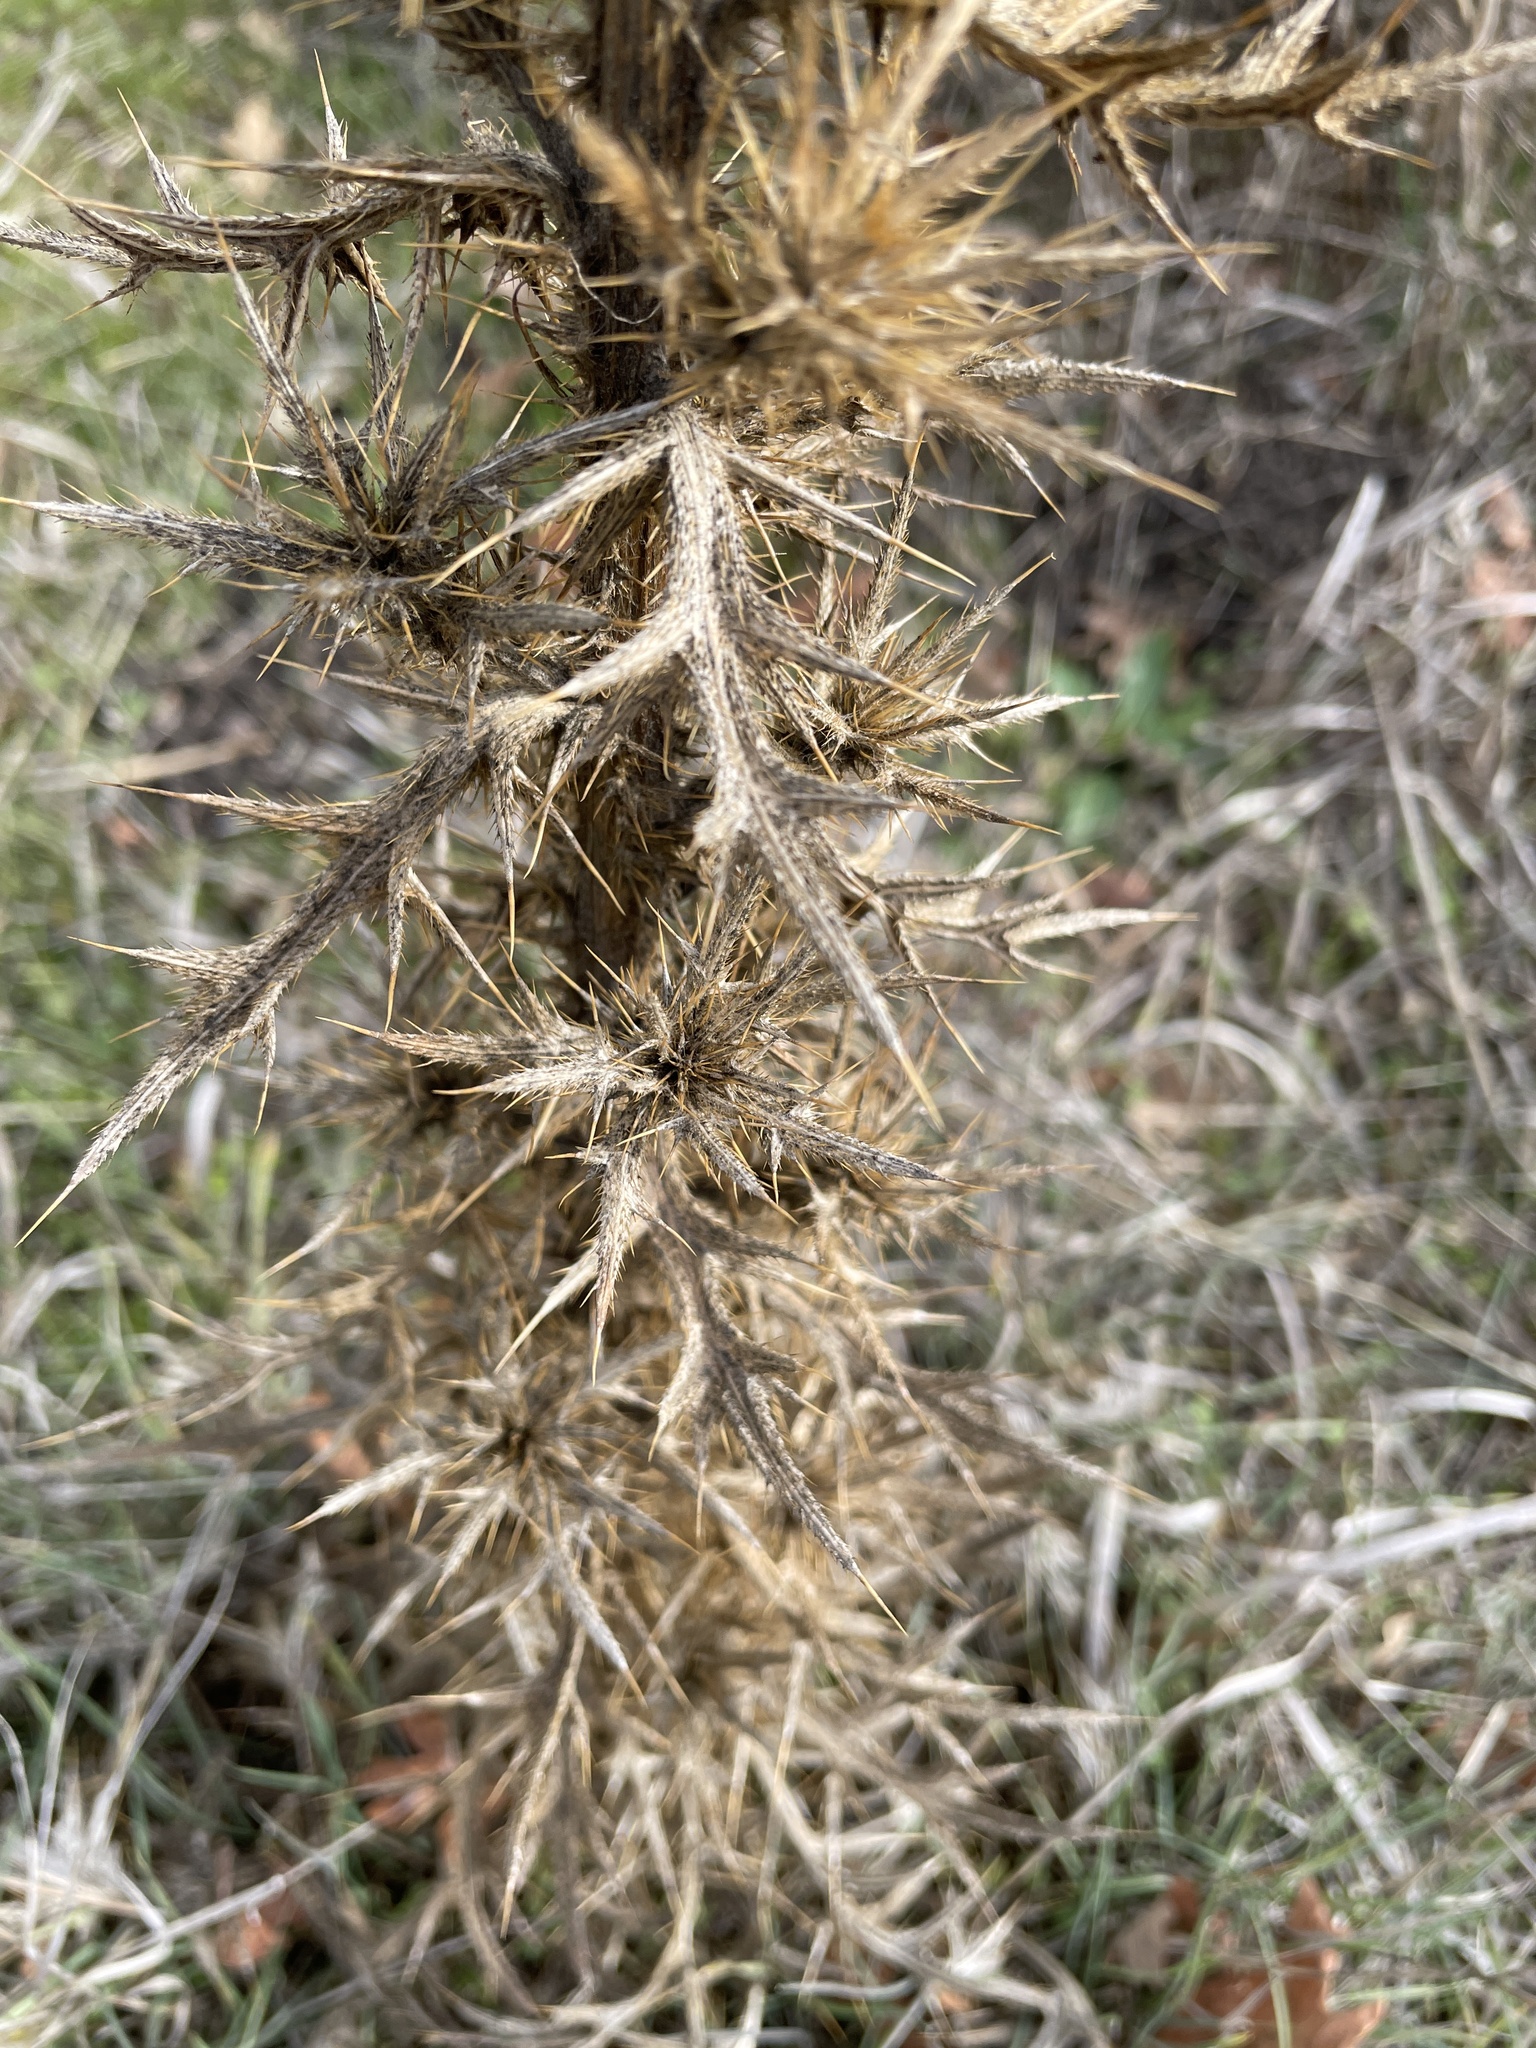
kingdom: Plantae
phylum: Tracheophyta
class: Magnoliopsida
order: Asterales
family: Asteraceae
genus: Cirsium
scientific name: Cirsium vulgare
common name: Bull thistle
